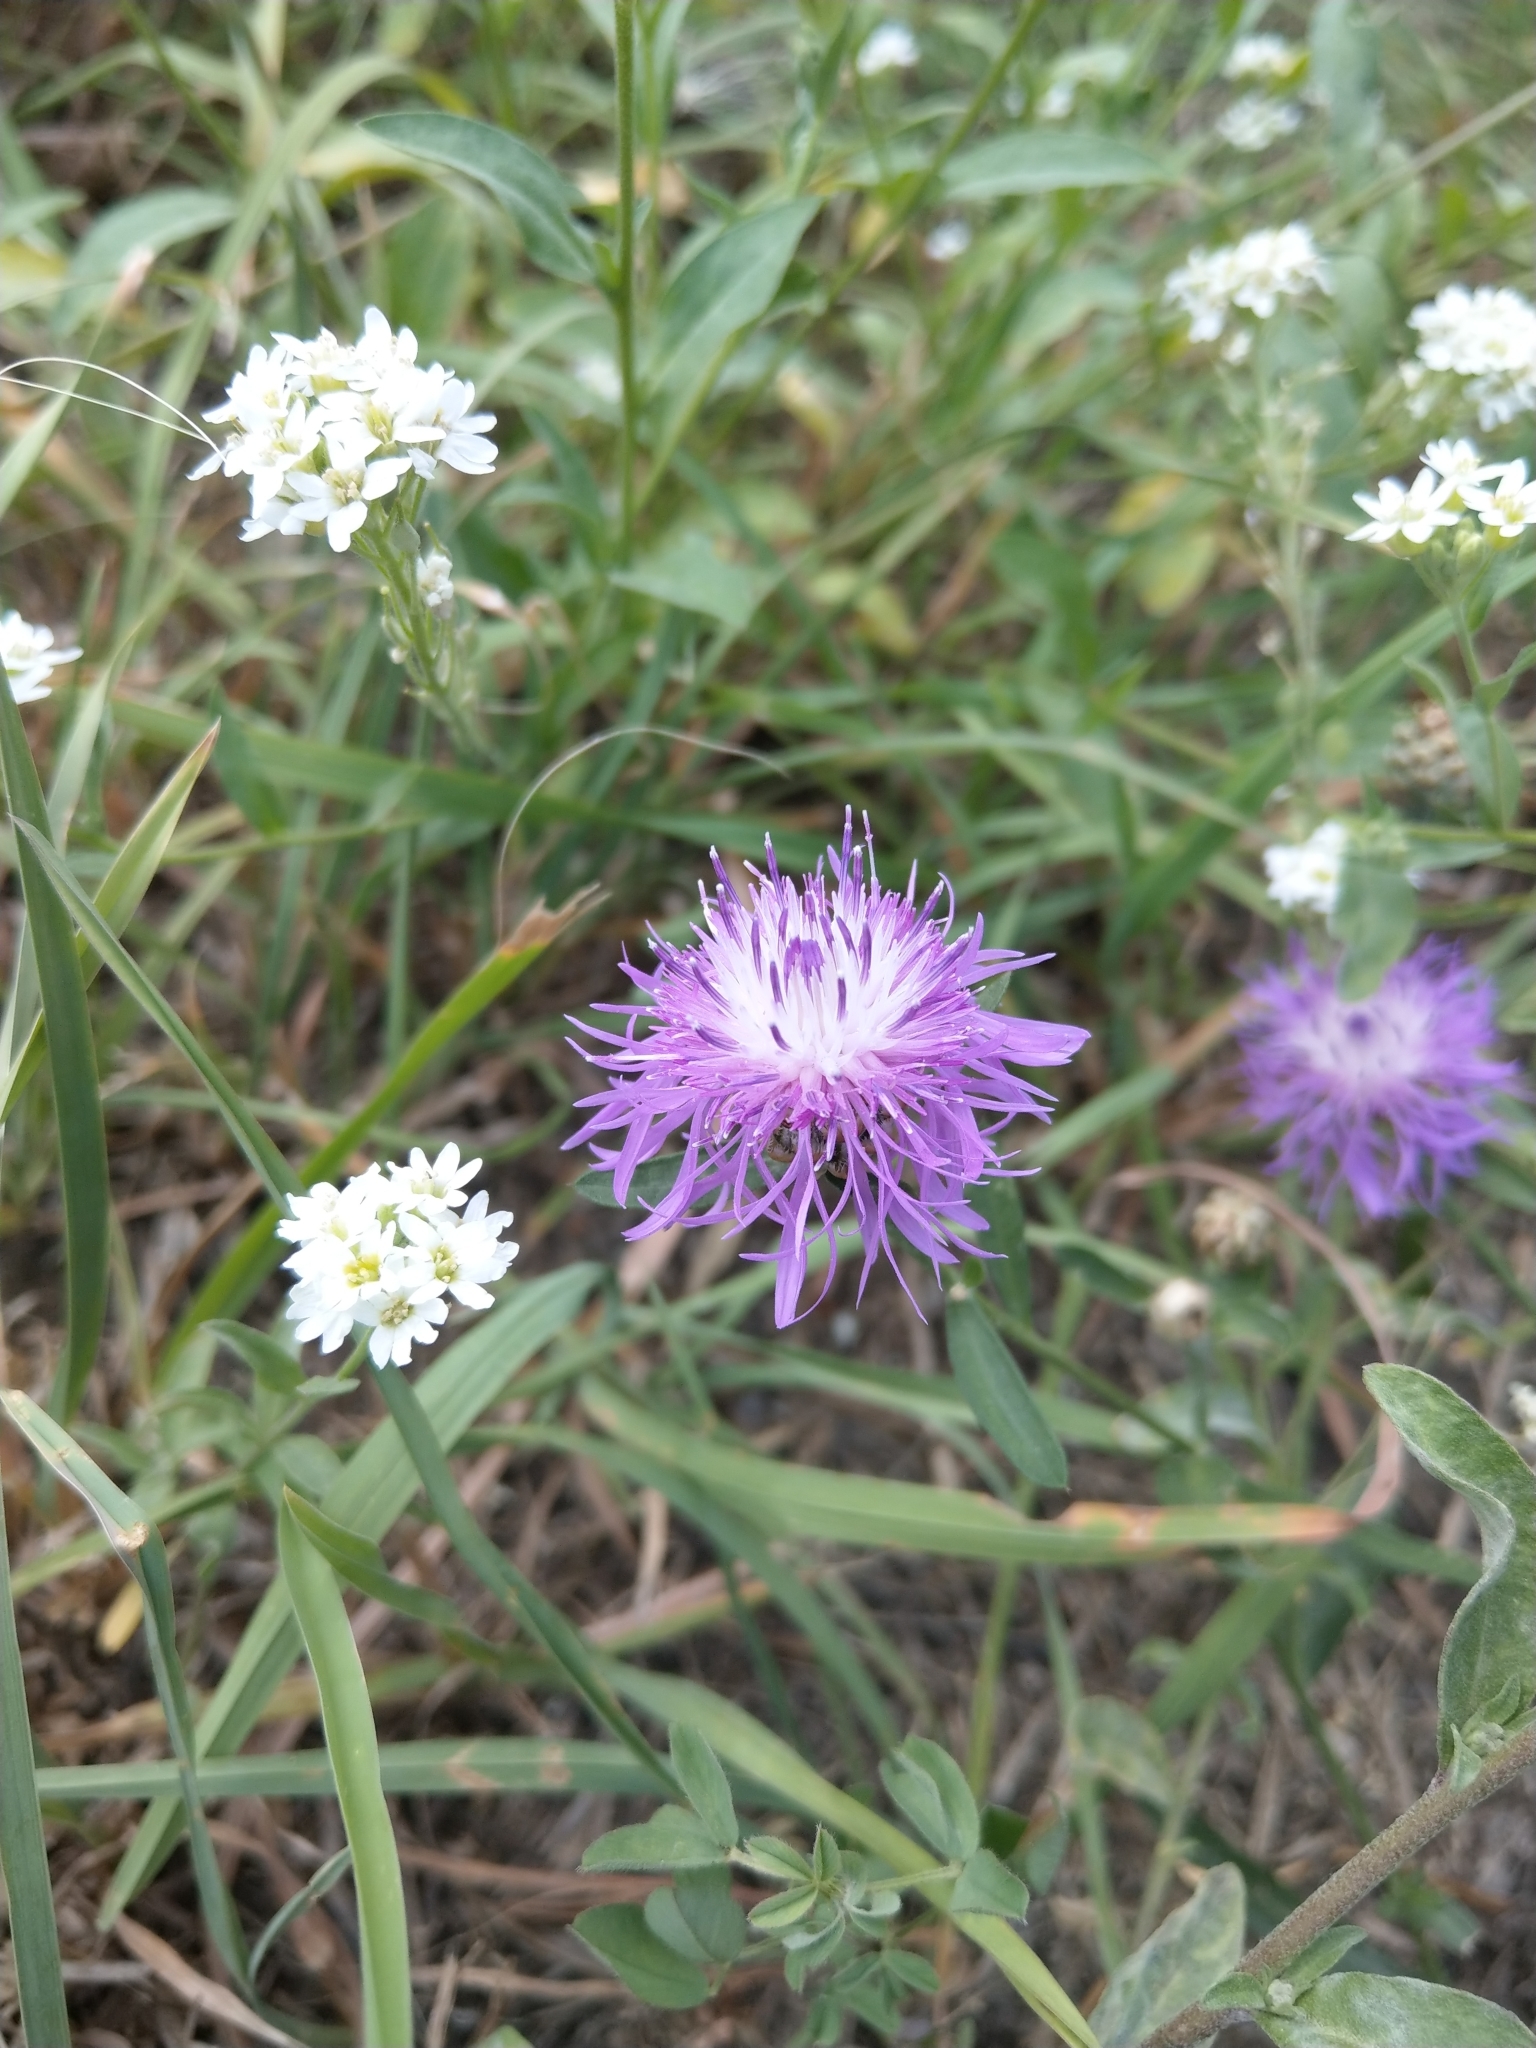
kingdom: Plantae
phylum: Tracheophyta
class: Magnoliopsida
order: Asterales
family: Asteraceae
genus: Centaurea
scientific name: Centaurea jacea
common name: Brown knapweed
